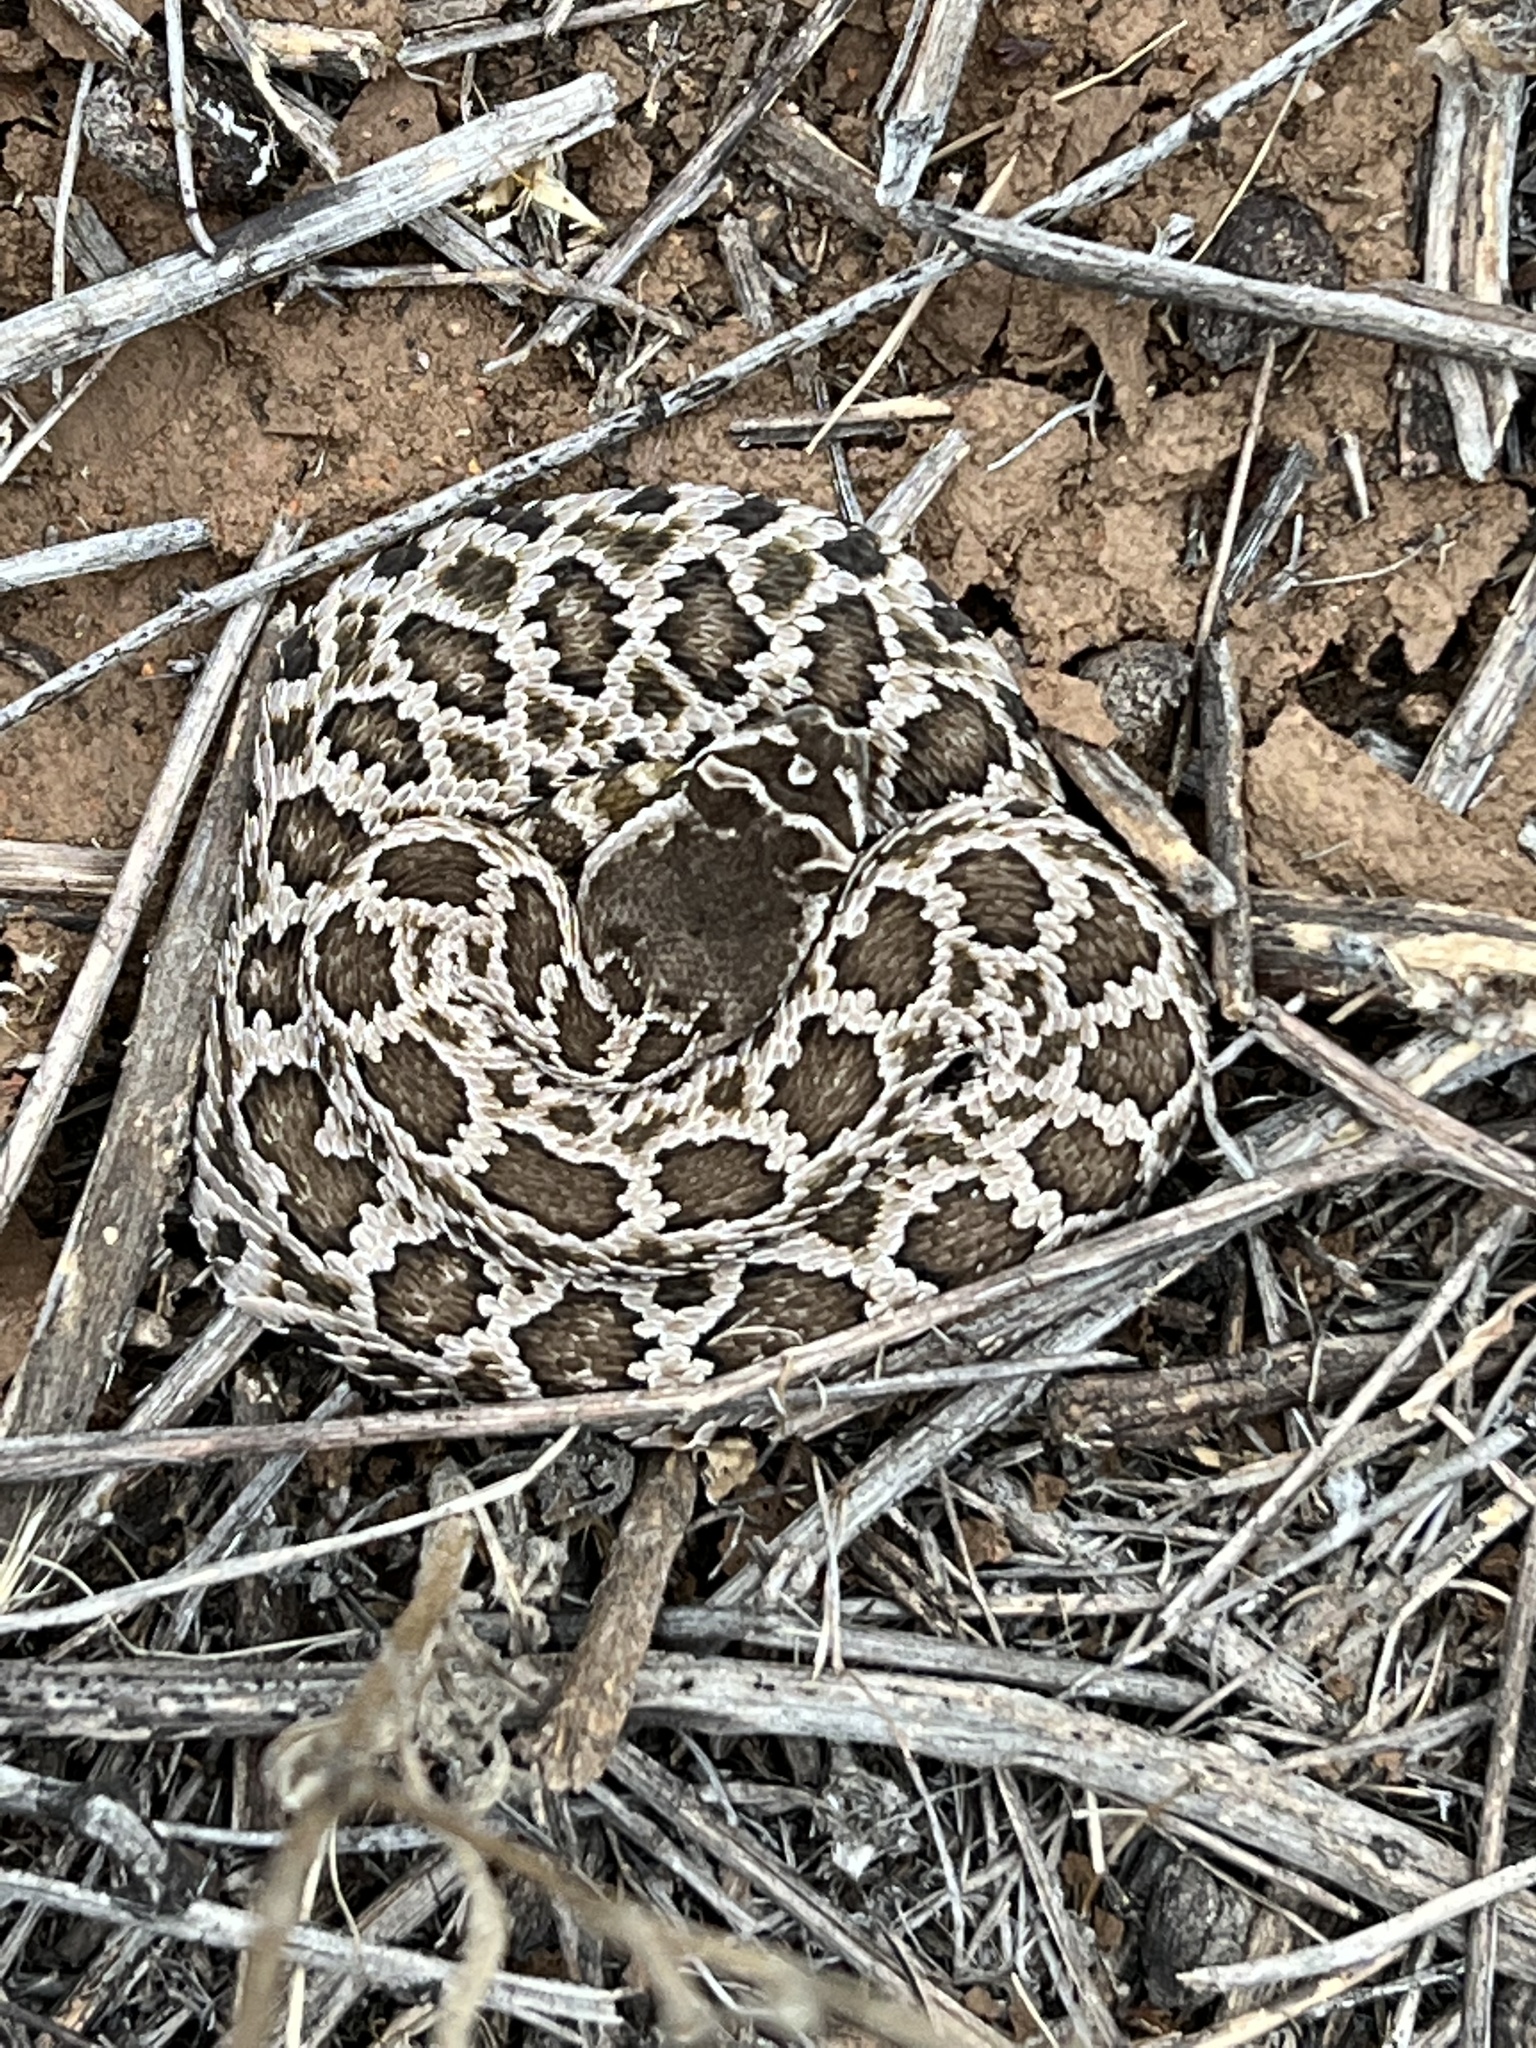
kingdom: Animalia
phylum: Chordata
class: Squamata
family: Viperidae
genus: Crotalus
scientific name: Crotalus oreganus
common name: Abyssus
